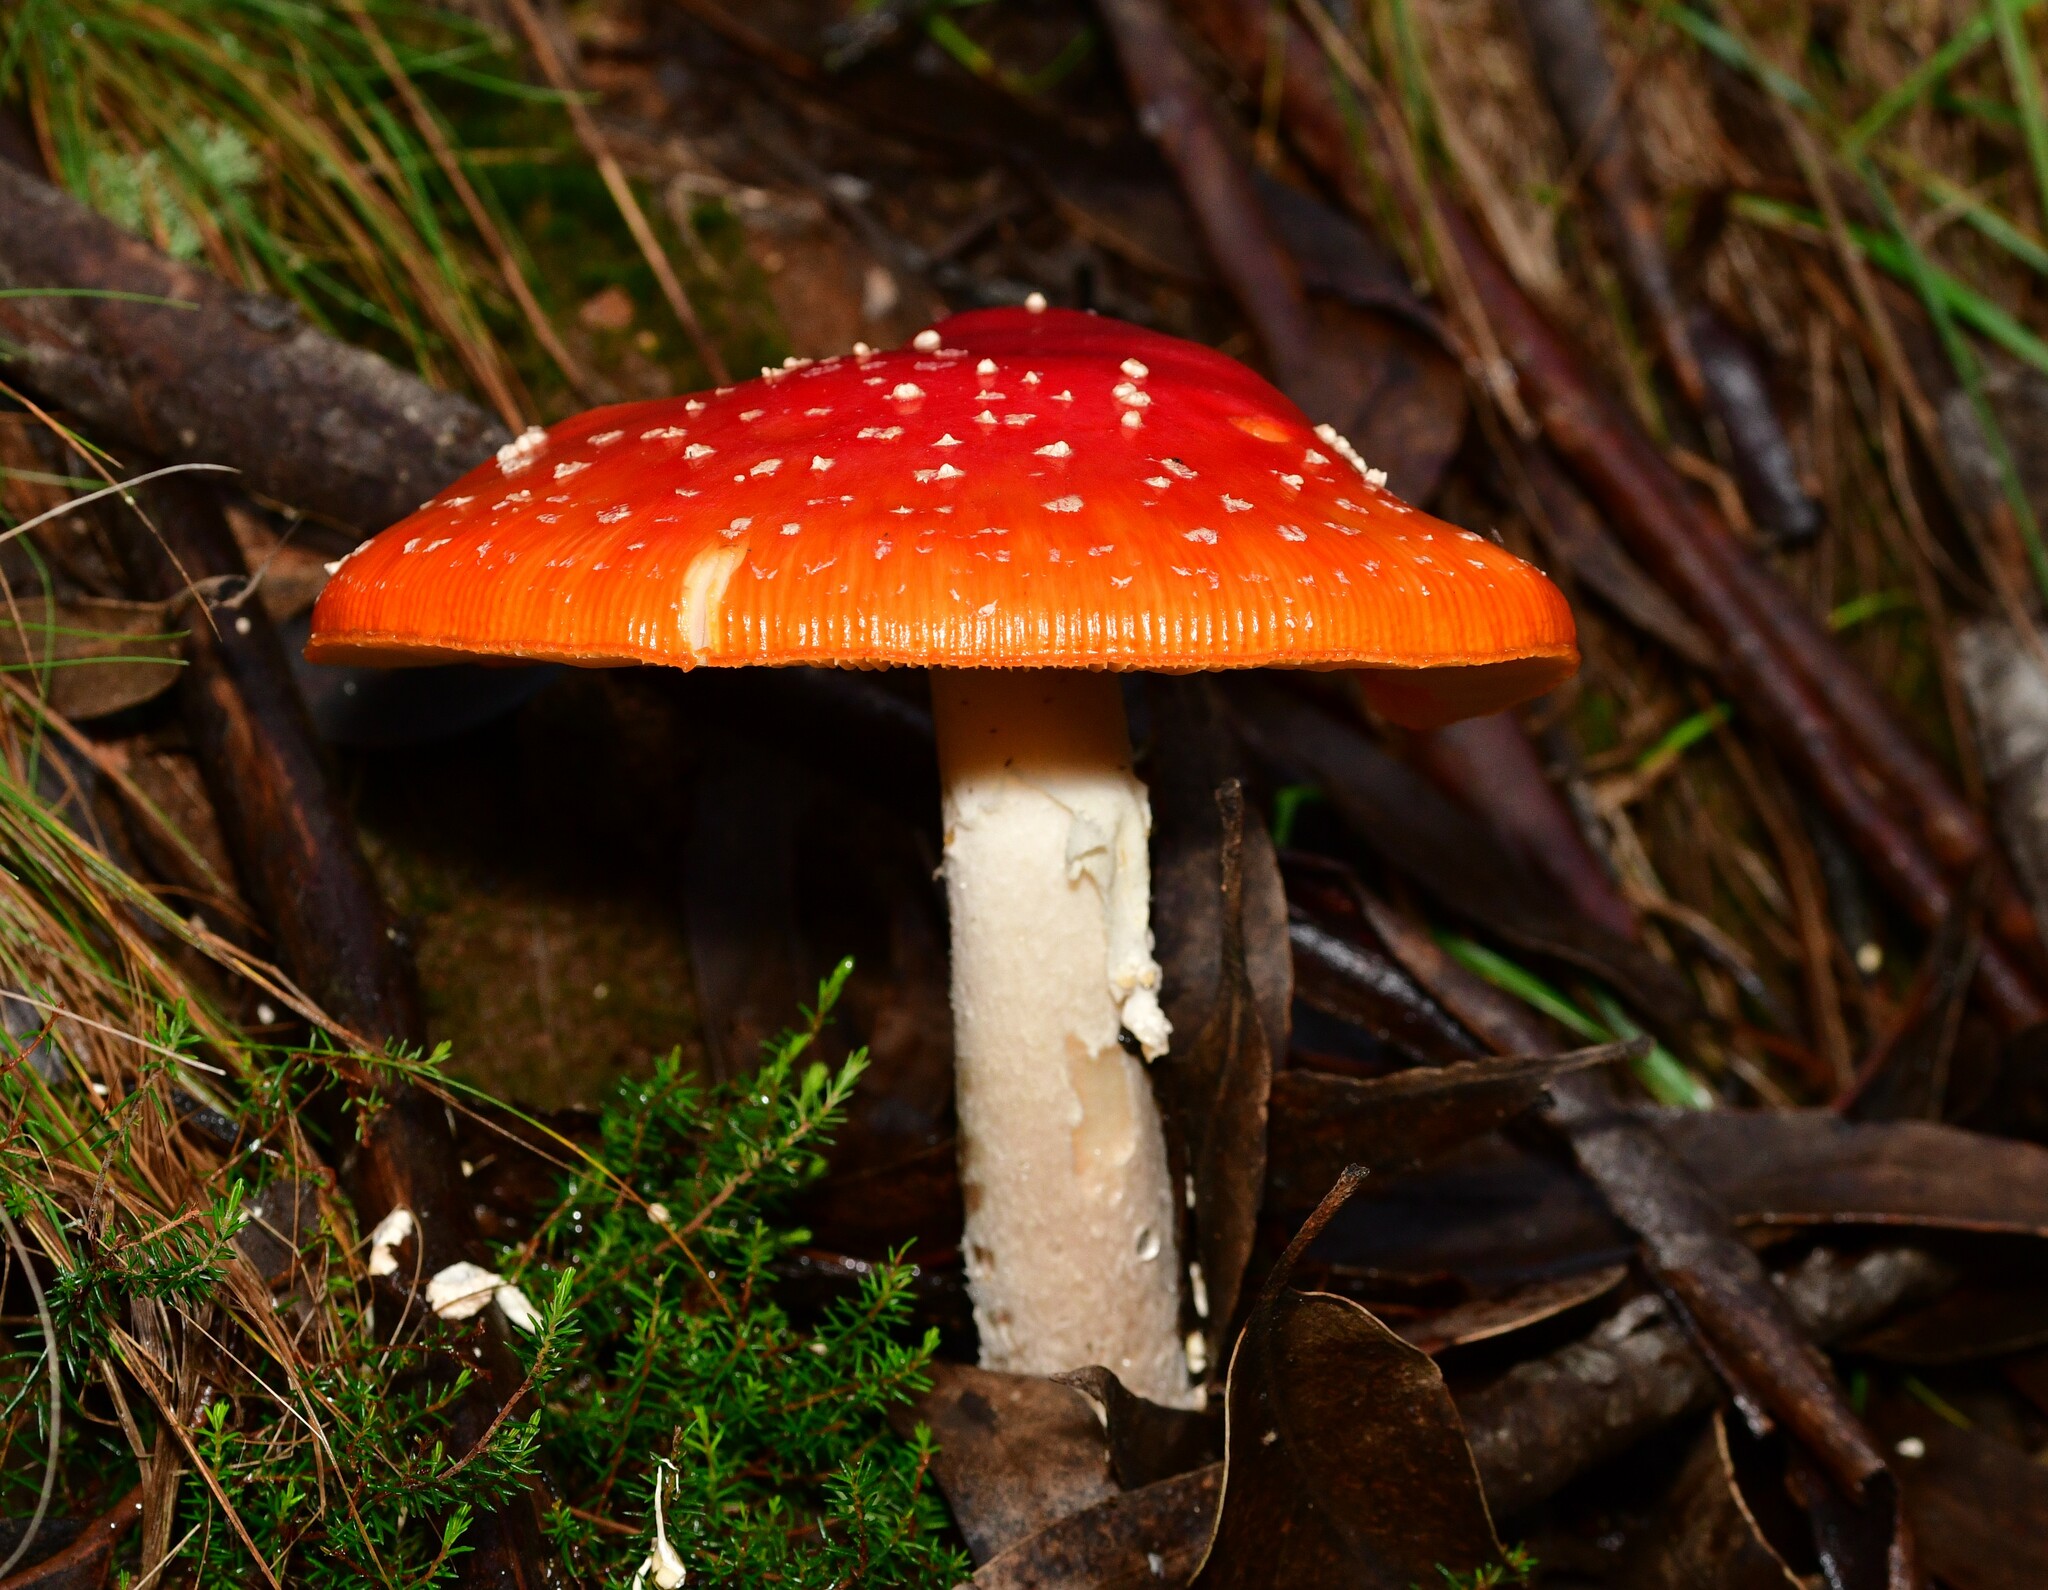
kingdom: Fungi
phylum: Basidiomycota
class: Agaricomycetes
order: Agaricales
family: Amanitaceae
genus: Amanita
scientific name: Amanita muscaria
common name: Fly agaric
